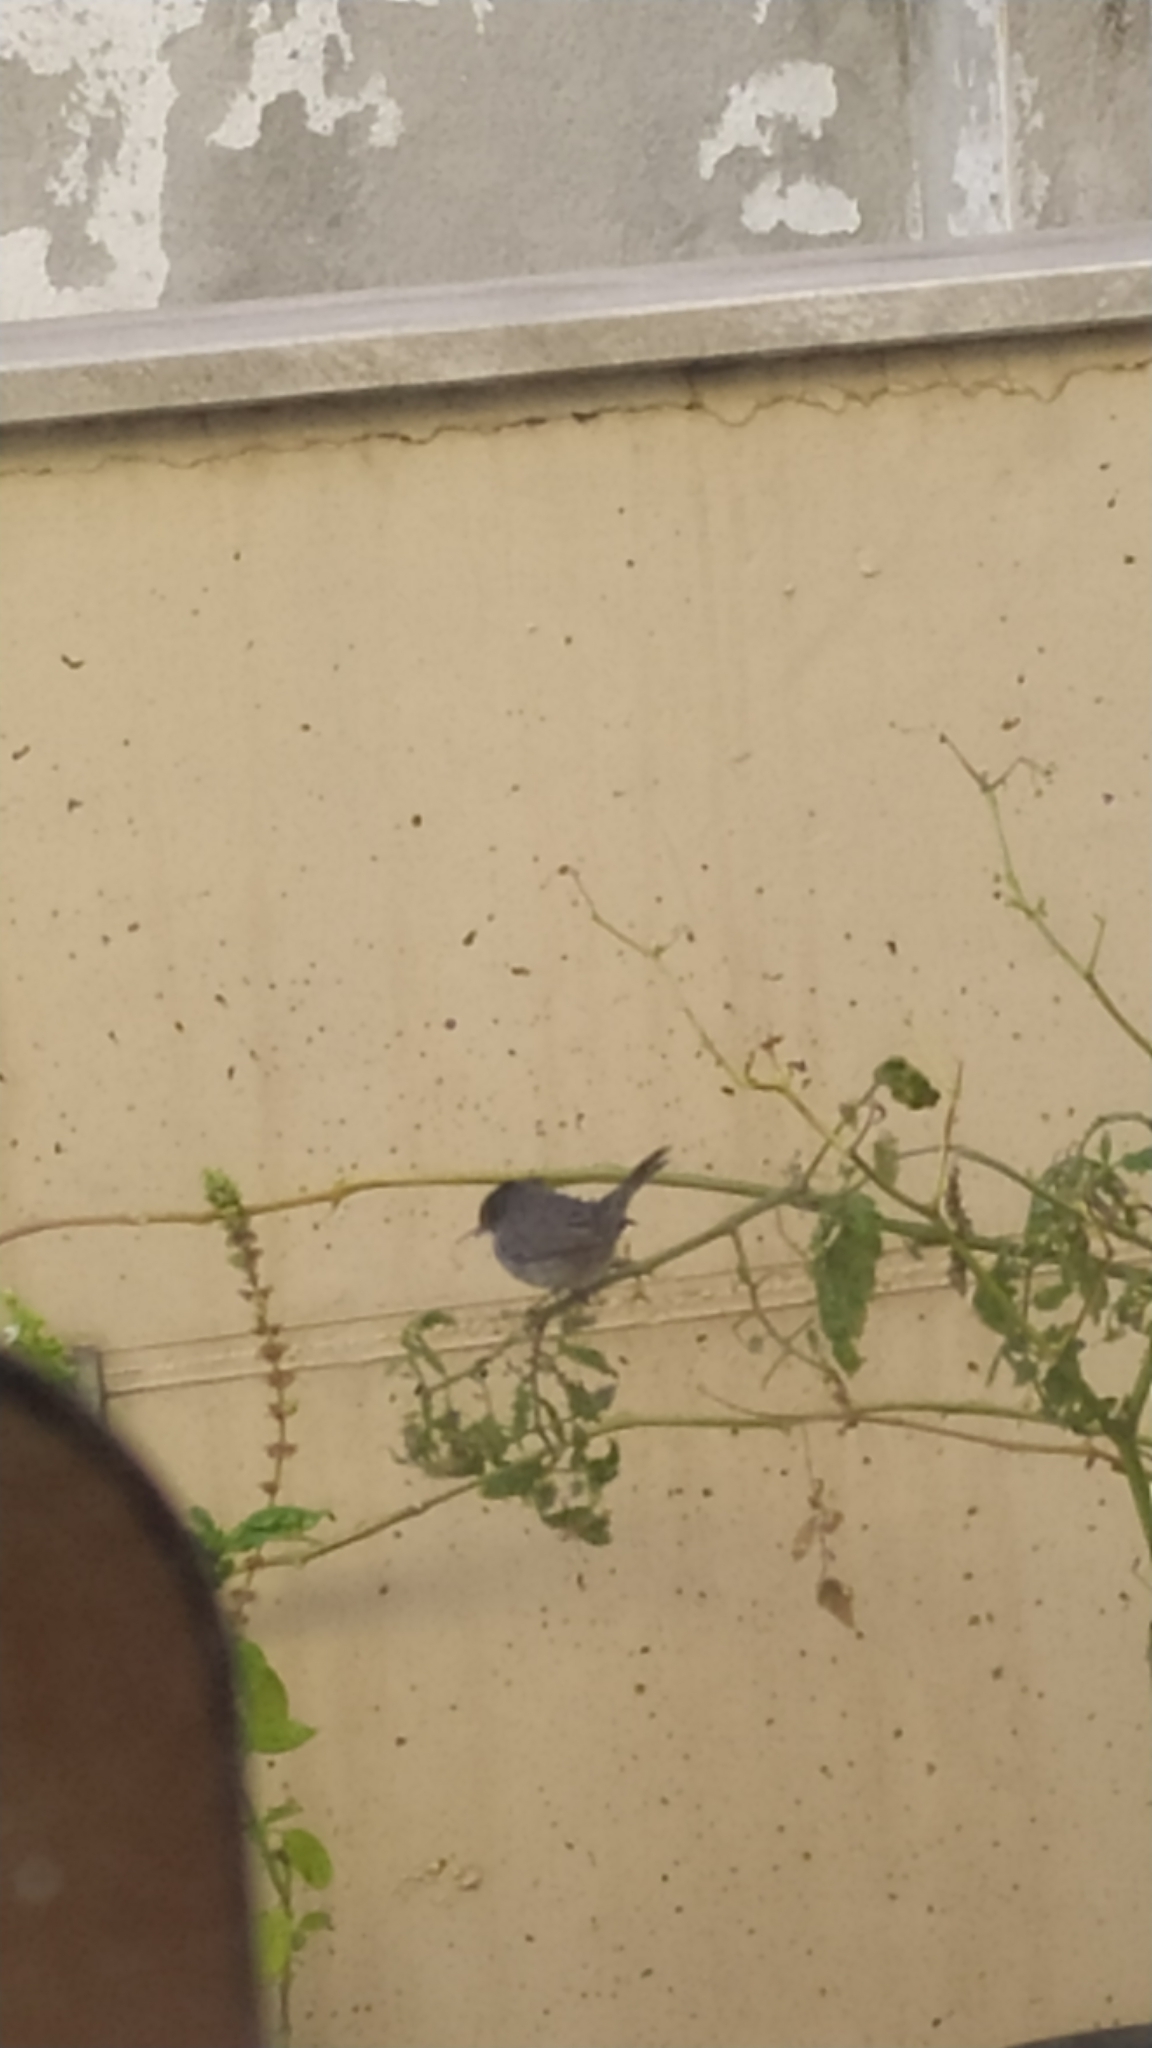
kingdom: Animalia
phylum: Chordata
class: Aves
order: Passeriformes
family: Sylviidae
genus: Curruca
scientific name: Curruca melanocephala
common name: Sardinian warbler
